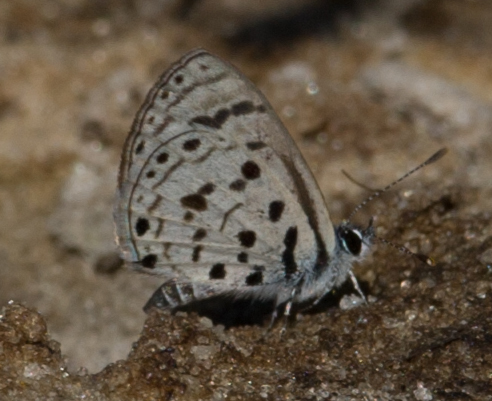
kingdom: Animalia
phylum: Arthropoda
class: Insecta
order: Lepidoptera
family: Lycaenidae
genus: Azanus
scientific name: Azanus moriqua
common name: Thorn-tree babul blue
